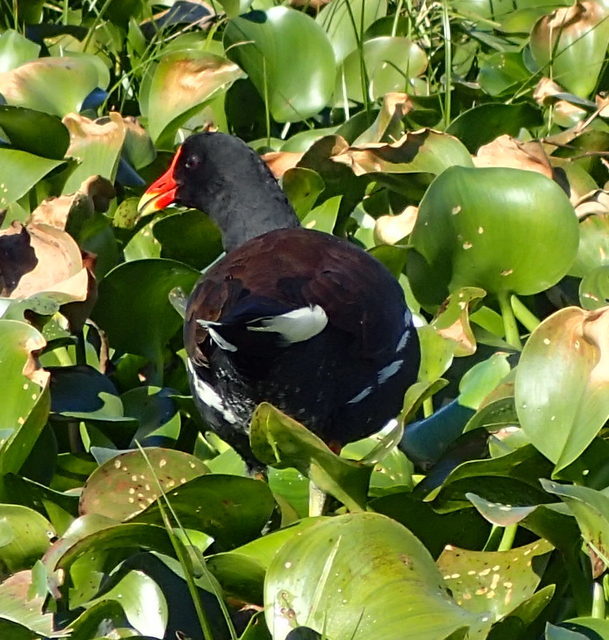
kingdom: Animalia
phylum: Chordata
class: Aves
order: Gruiformes
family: Rallidae
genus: Gallinula
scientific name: Gallinula chloropus
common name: Common moorhen
